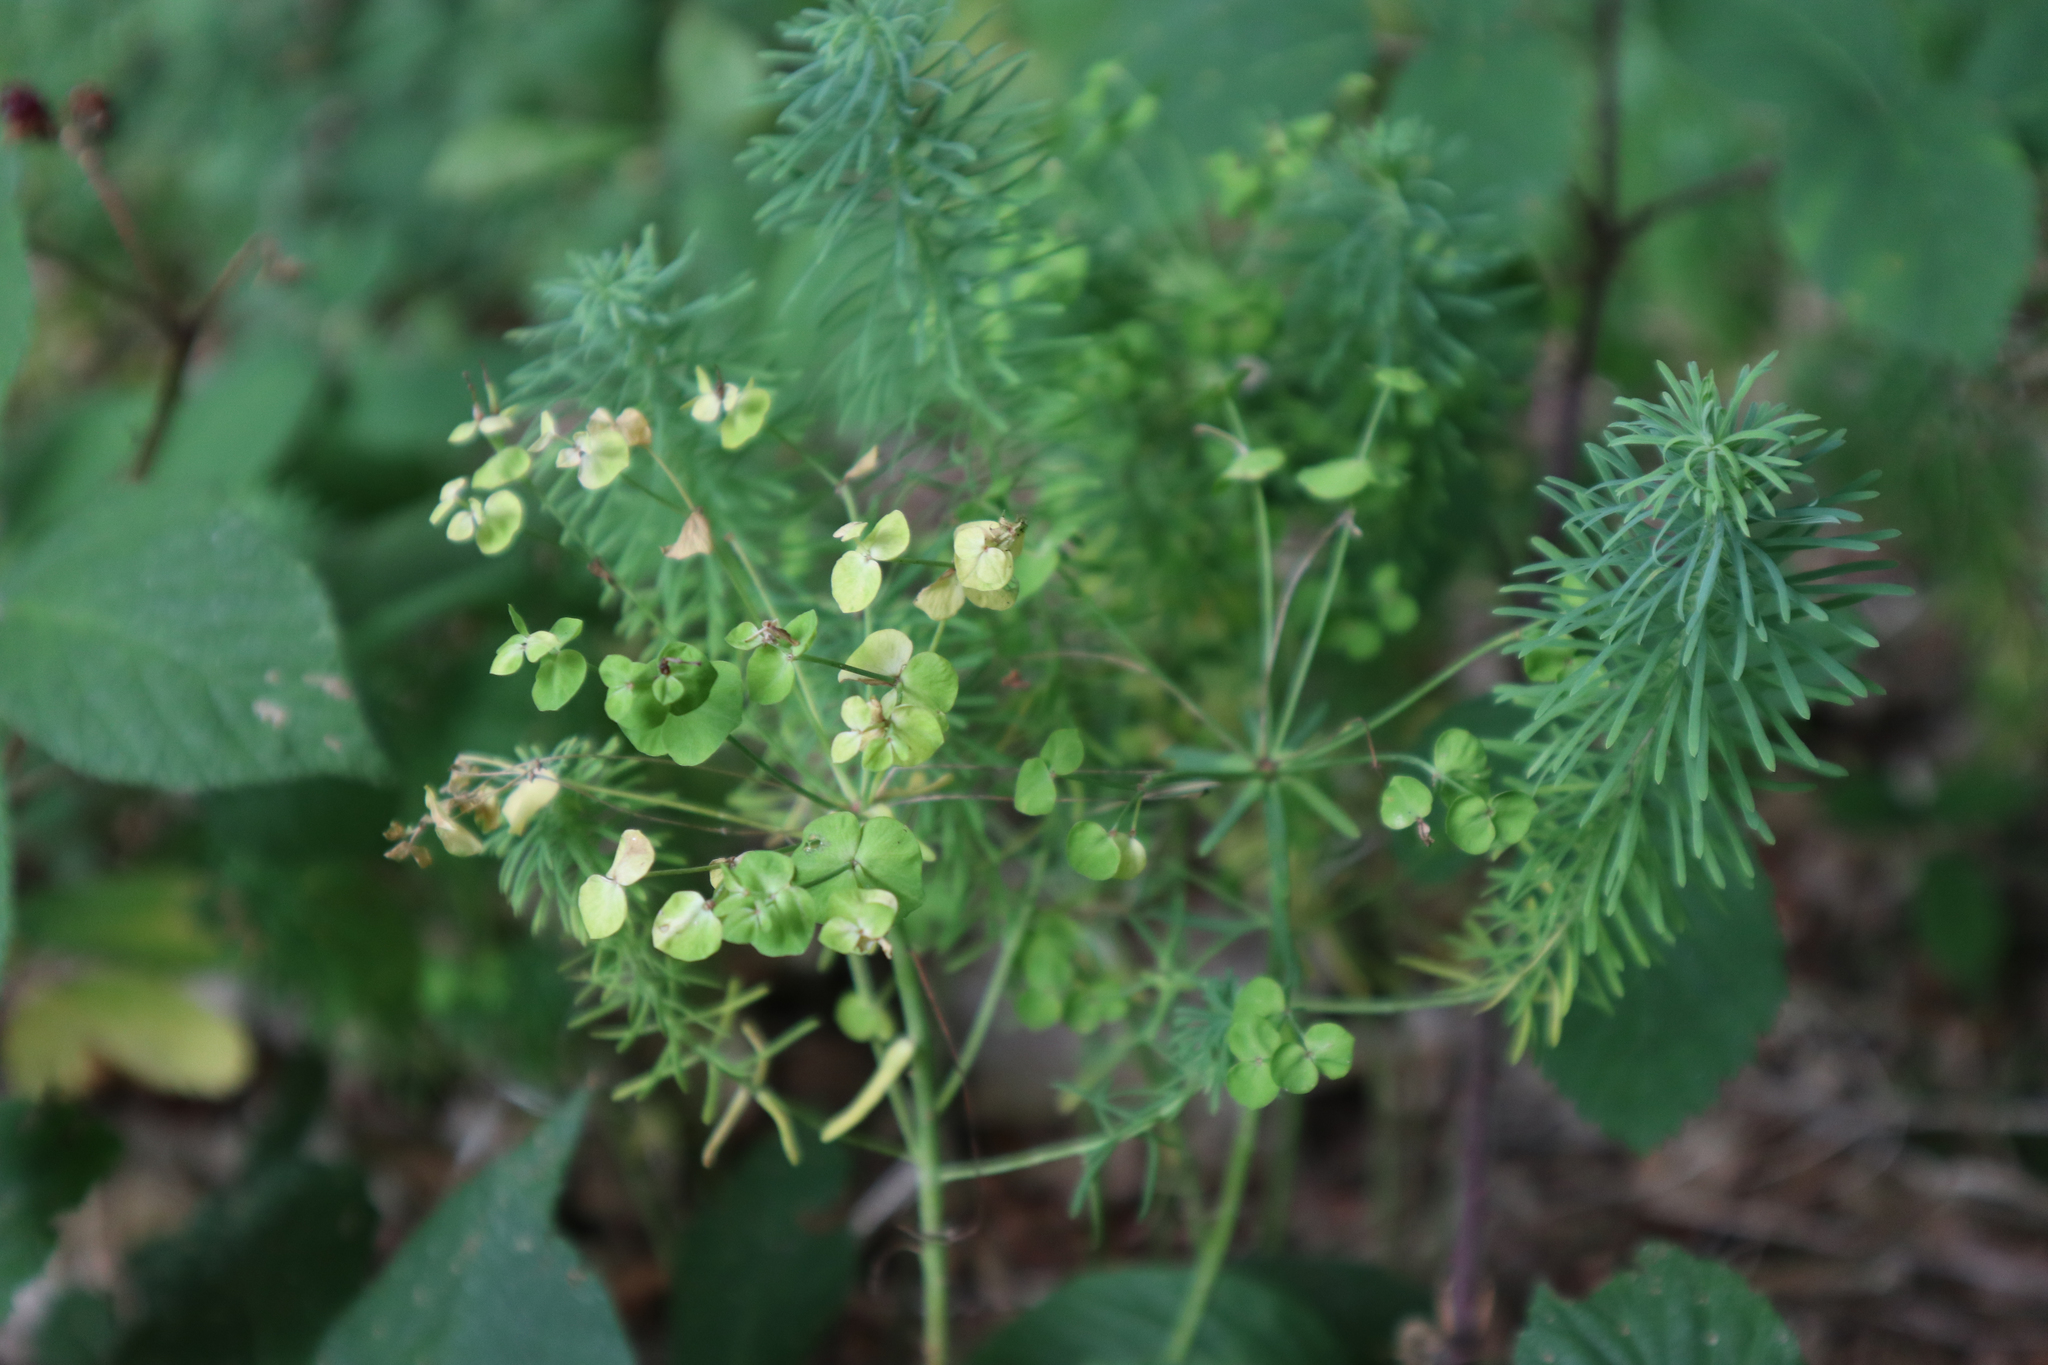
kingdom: Plantae
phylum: Tracheophyta
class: Magnoliopsida
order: Malpighiales
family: Euphorbiaceae
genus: Euphorbia
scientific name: Euphorbia cyparissias
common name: Cypress spurge
